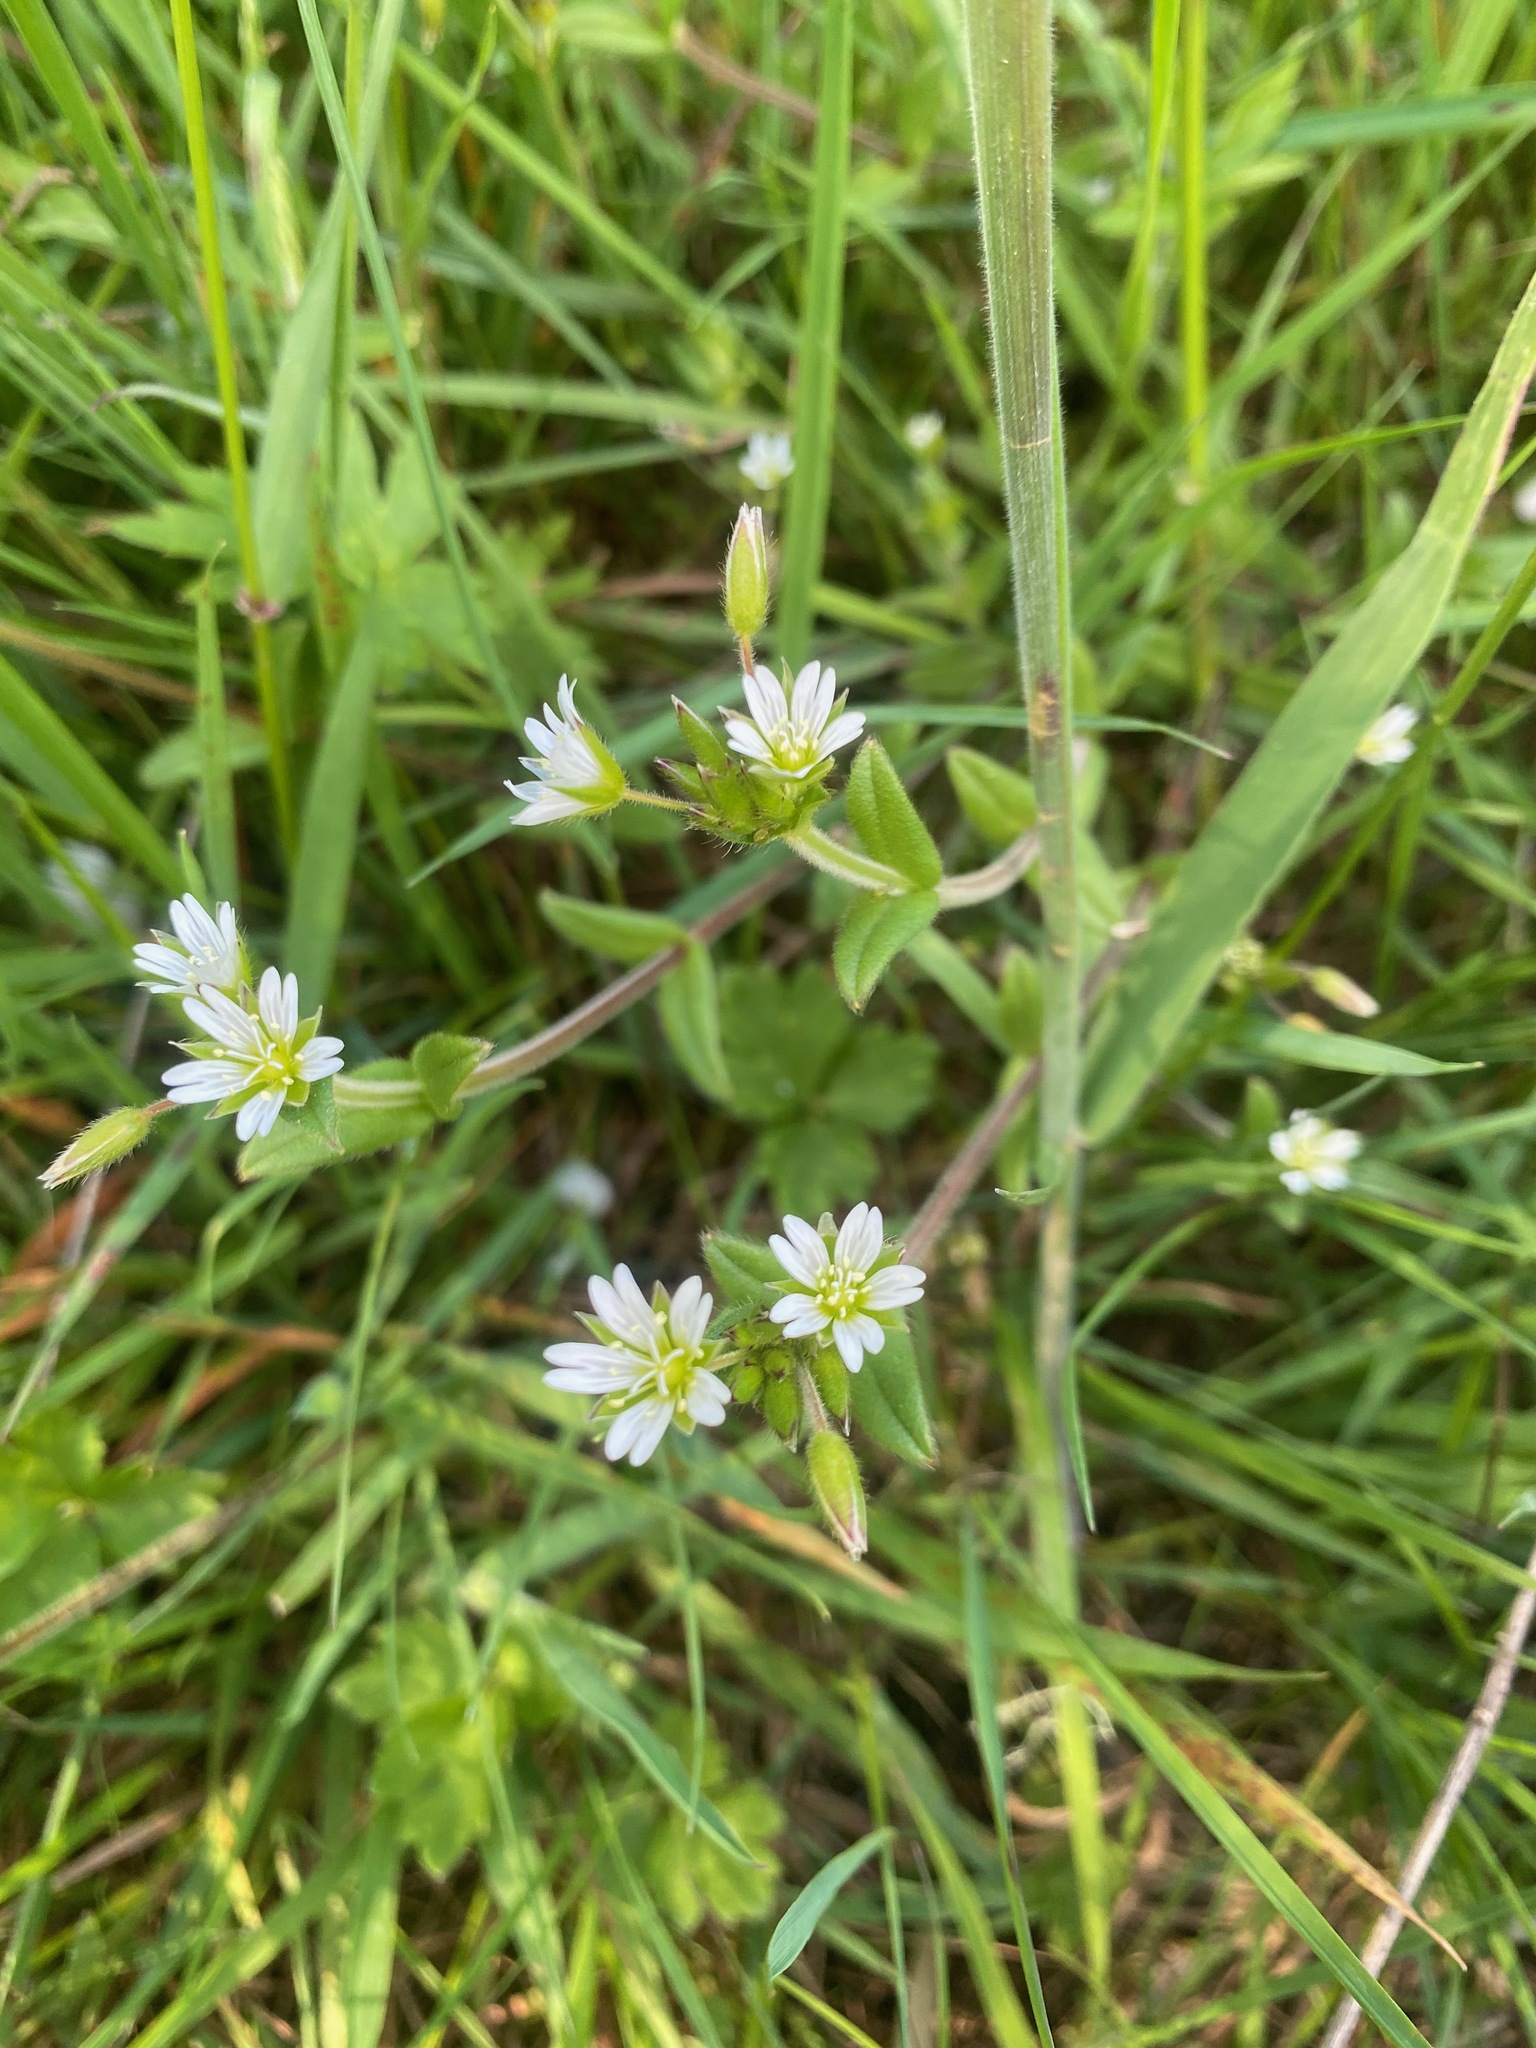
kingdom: Plantae
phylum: Tracheophyta
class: Magnoliopsida
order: Caryophyllales
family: Caryophyllaceae
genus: Cerastium
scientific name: Cerastium fontanum
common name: Common mouse-ear
